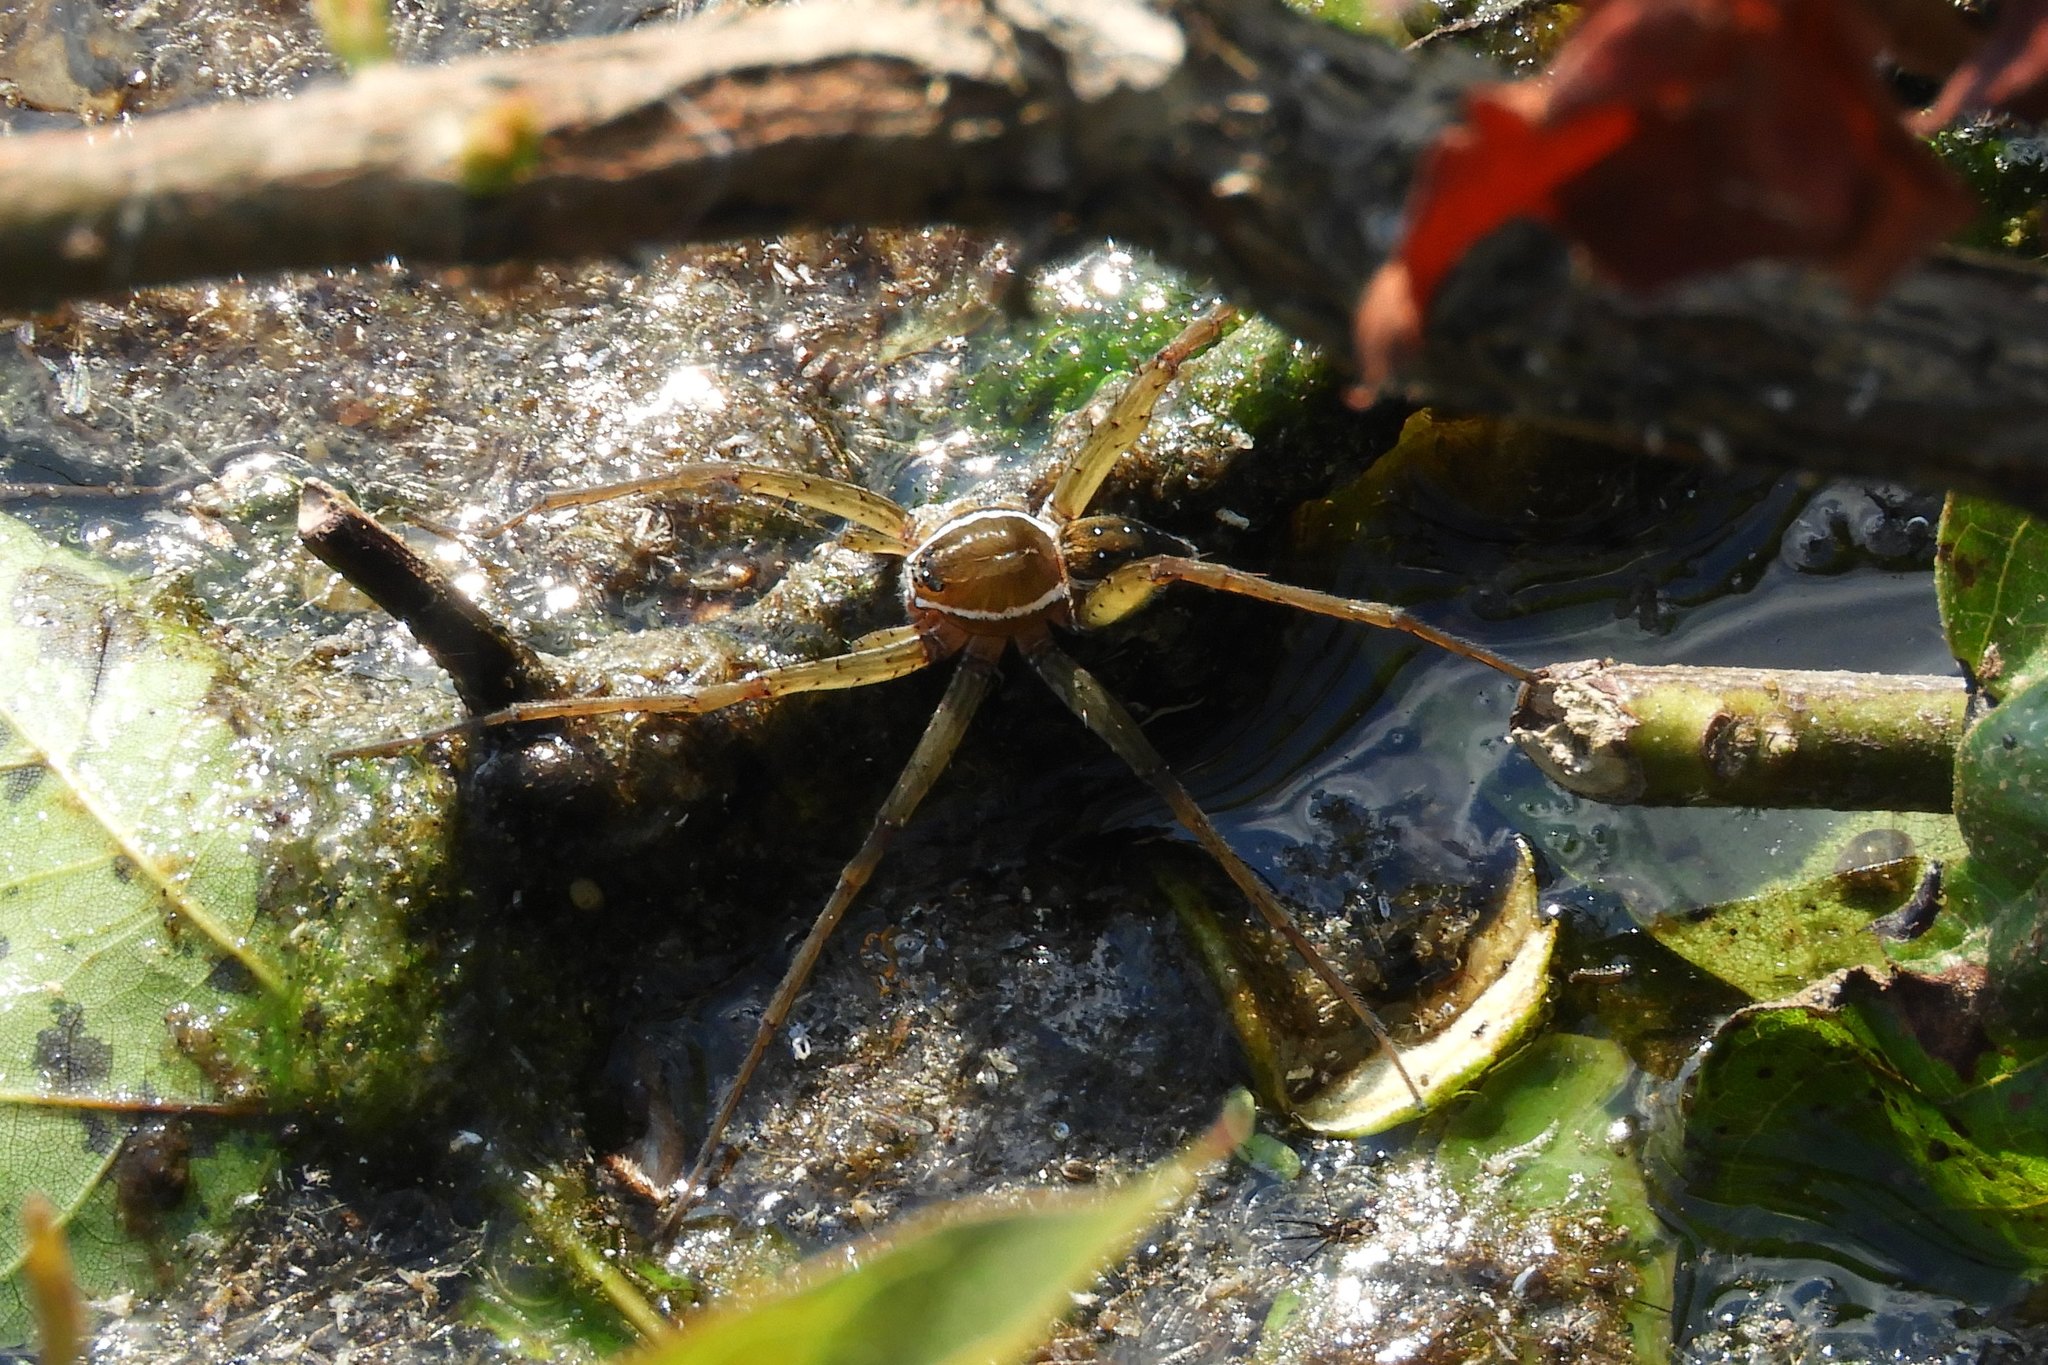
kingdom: Animalia
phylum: Arthropoda
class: Arachnida
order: Araneae
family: Pisauridae
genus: Dolomedes
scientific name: Dolomedes triton
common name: Six-spotted fishing spider
